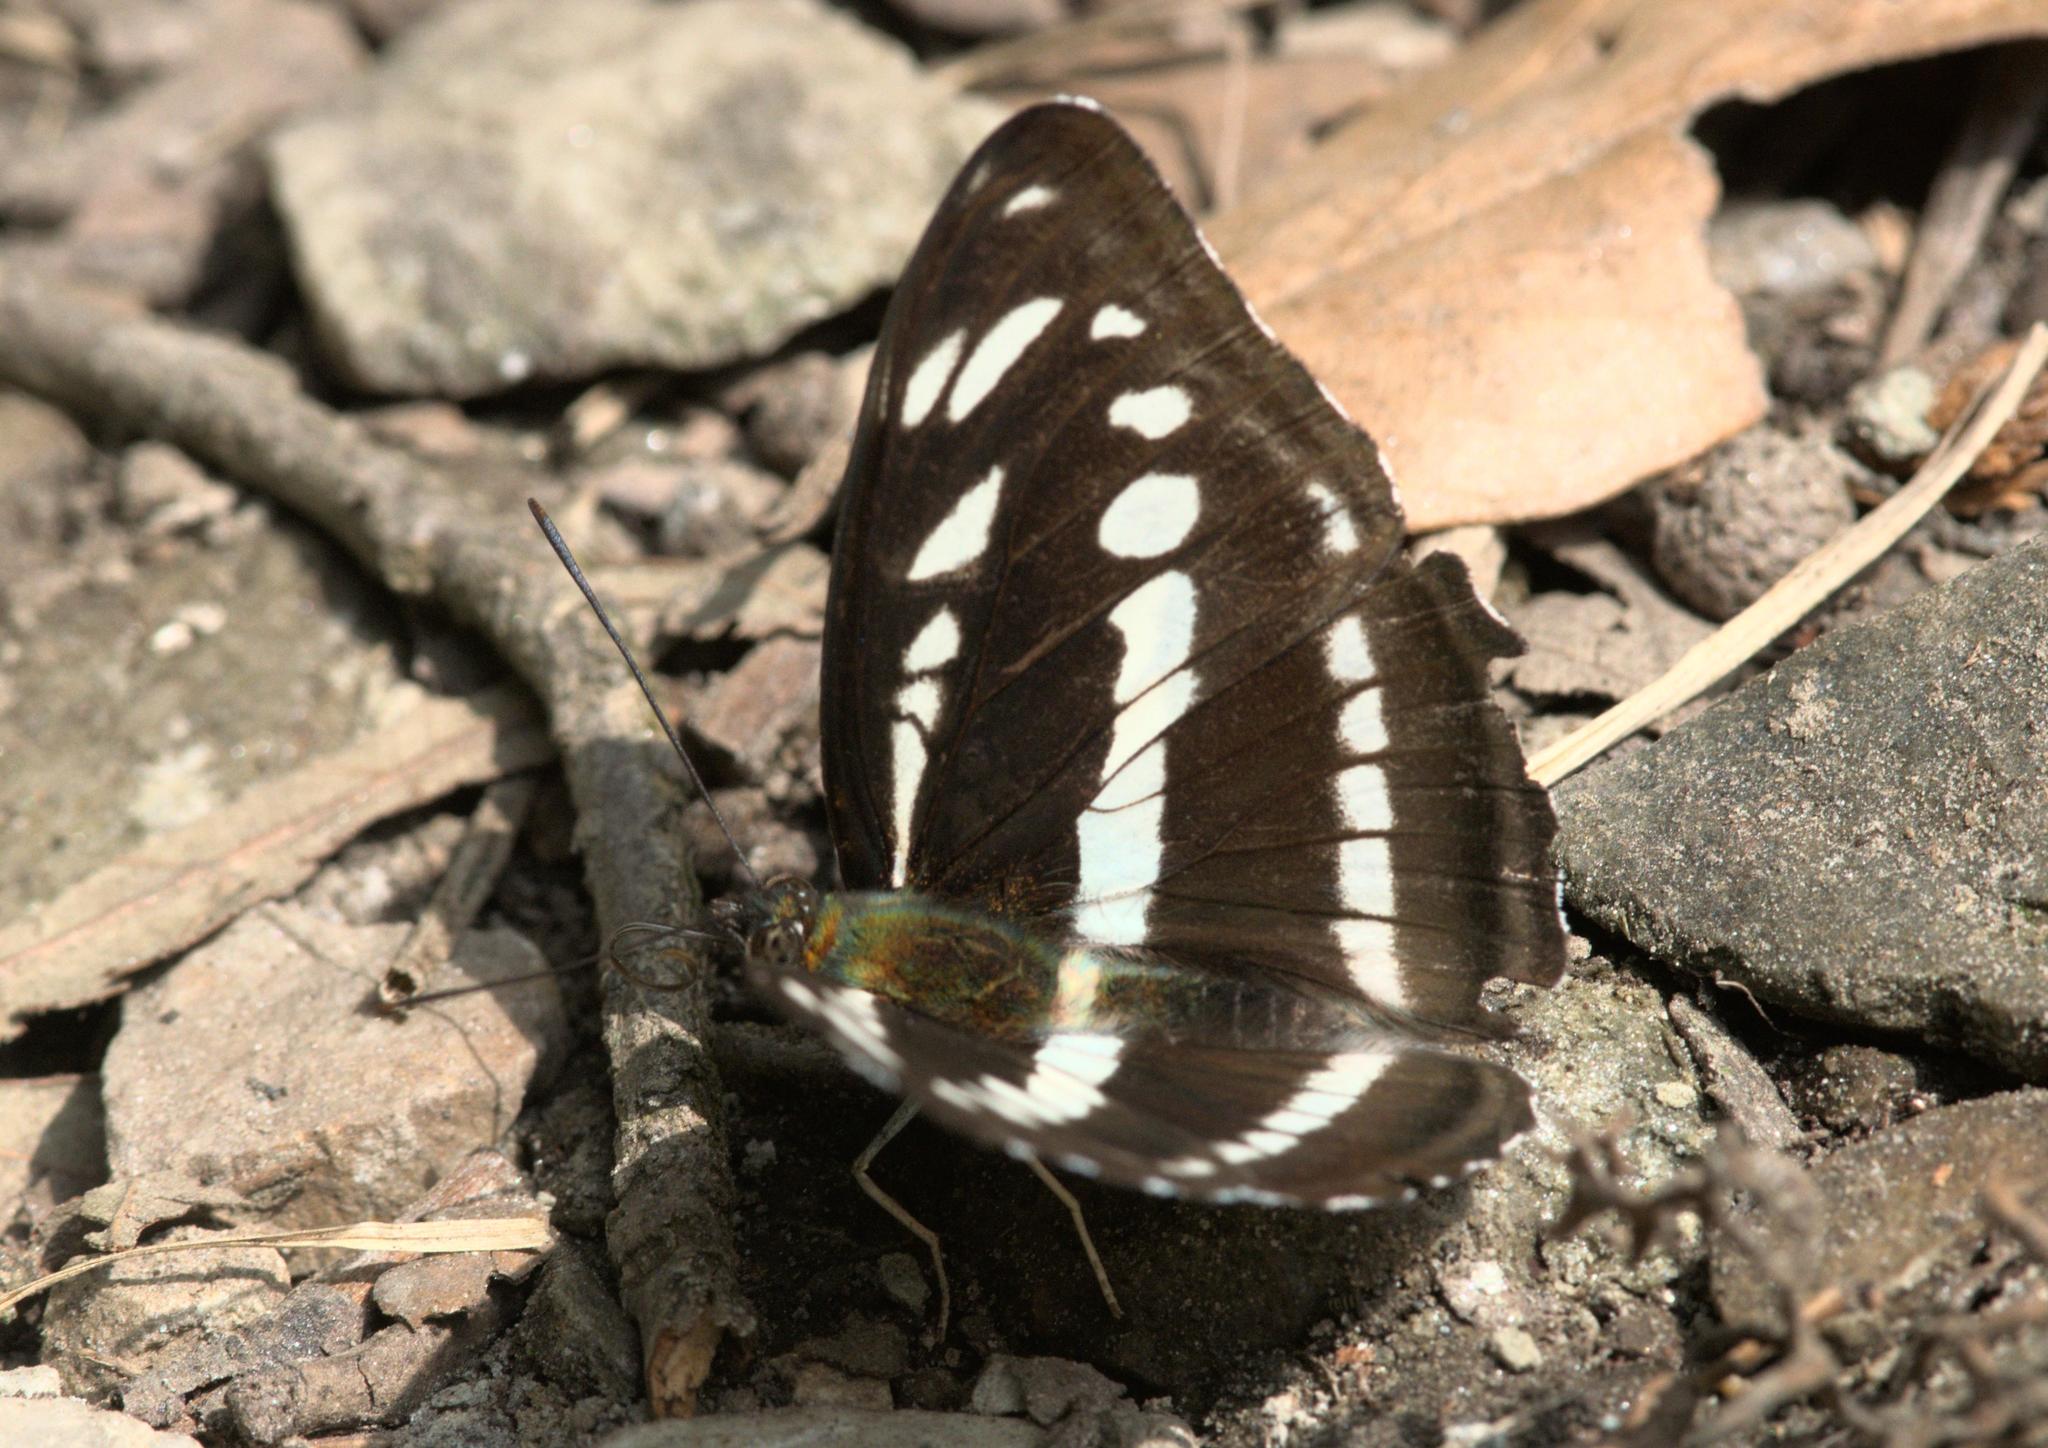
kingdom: Animalia
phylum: Arthropoda
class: Insecta
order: Lepidoptera
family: Nymphalidae
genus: Parathyma
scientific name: Parathyma opalina
